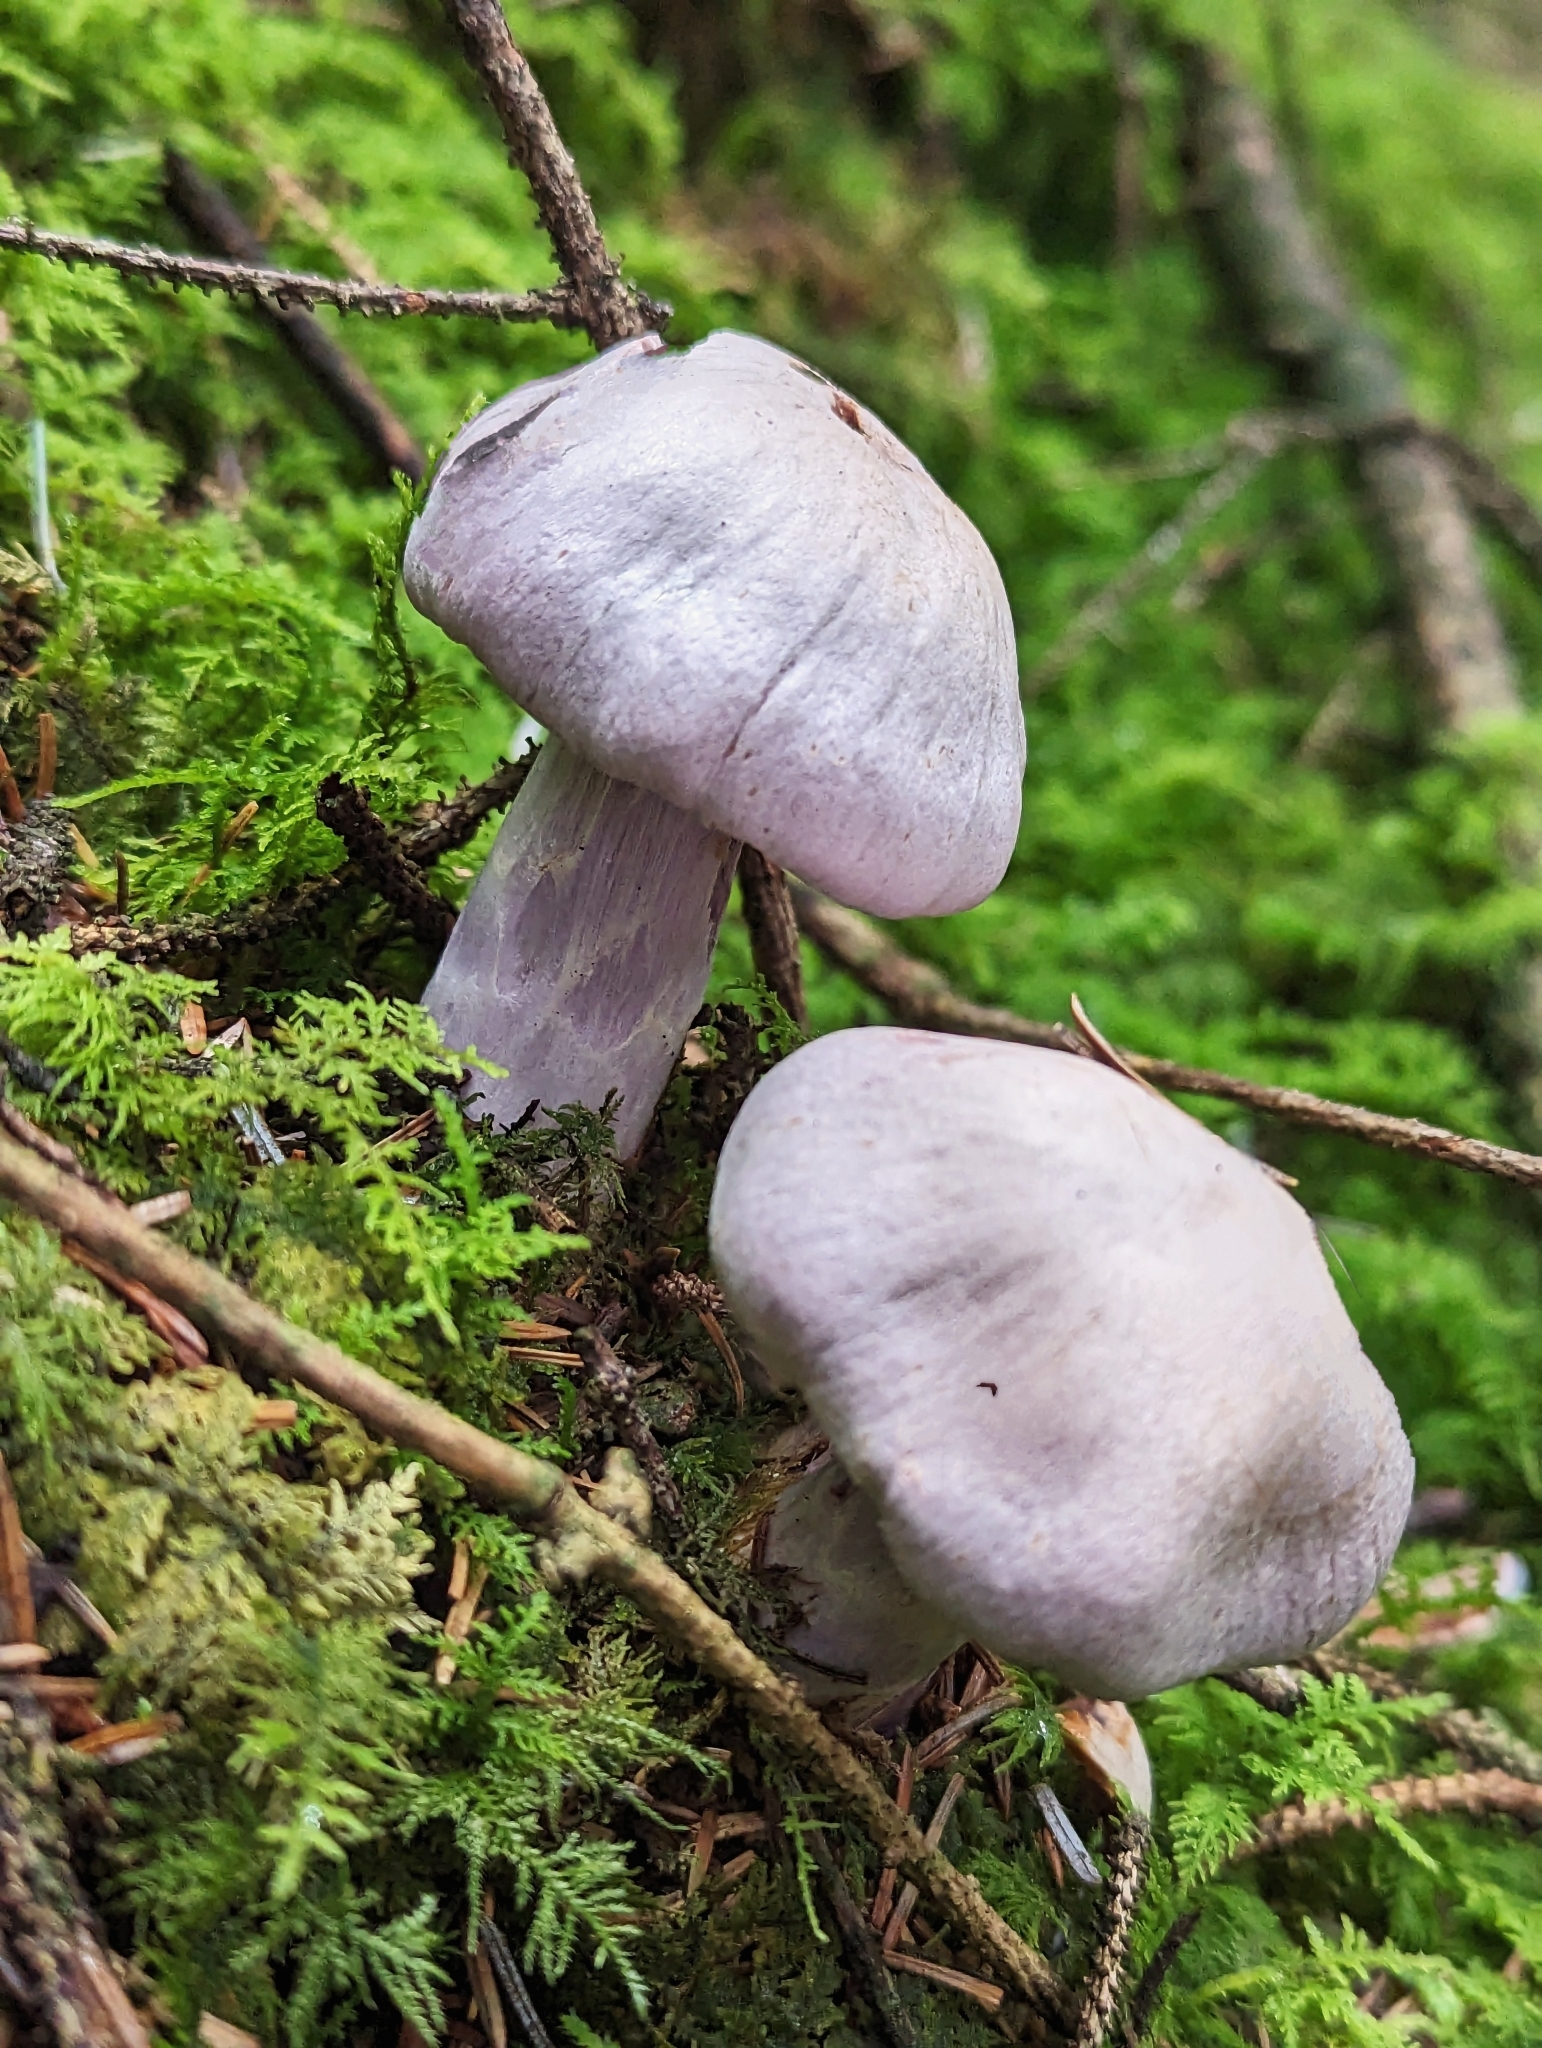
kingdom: Fungi
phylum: Basidiomycota
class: Agaricomycetes
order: Agaricales
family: Cortinariaceae
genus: Cortinarius
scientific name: Cortinarius camphoratus
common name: Goatcheese webcap
